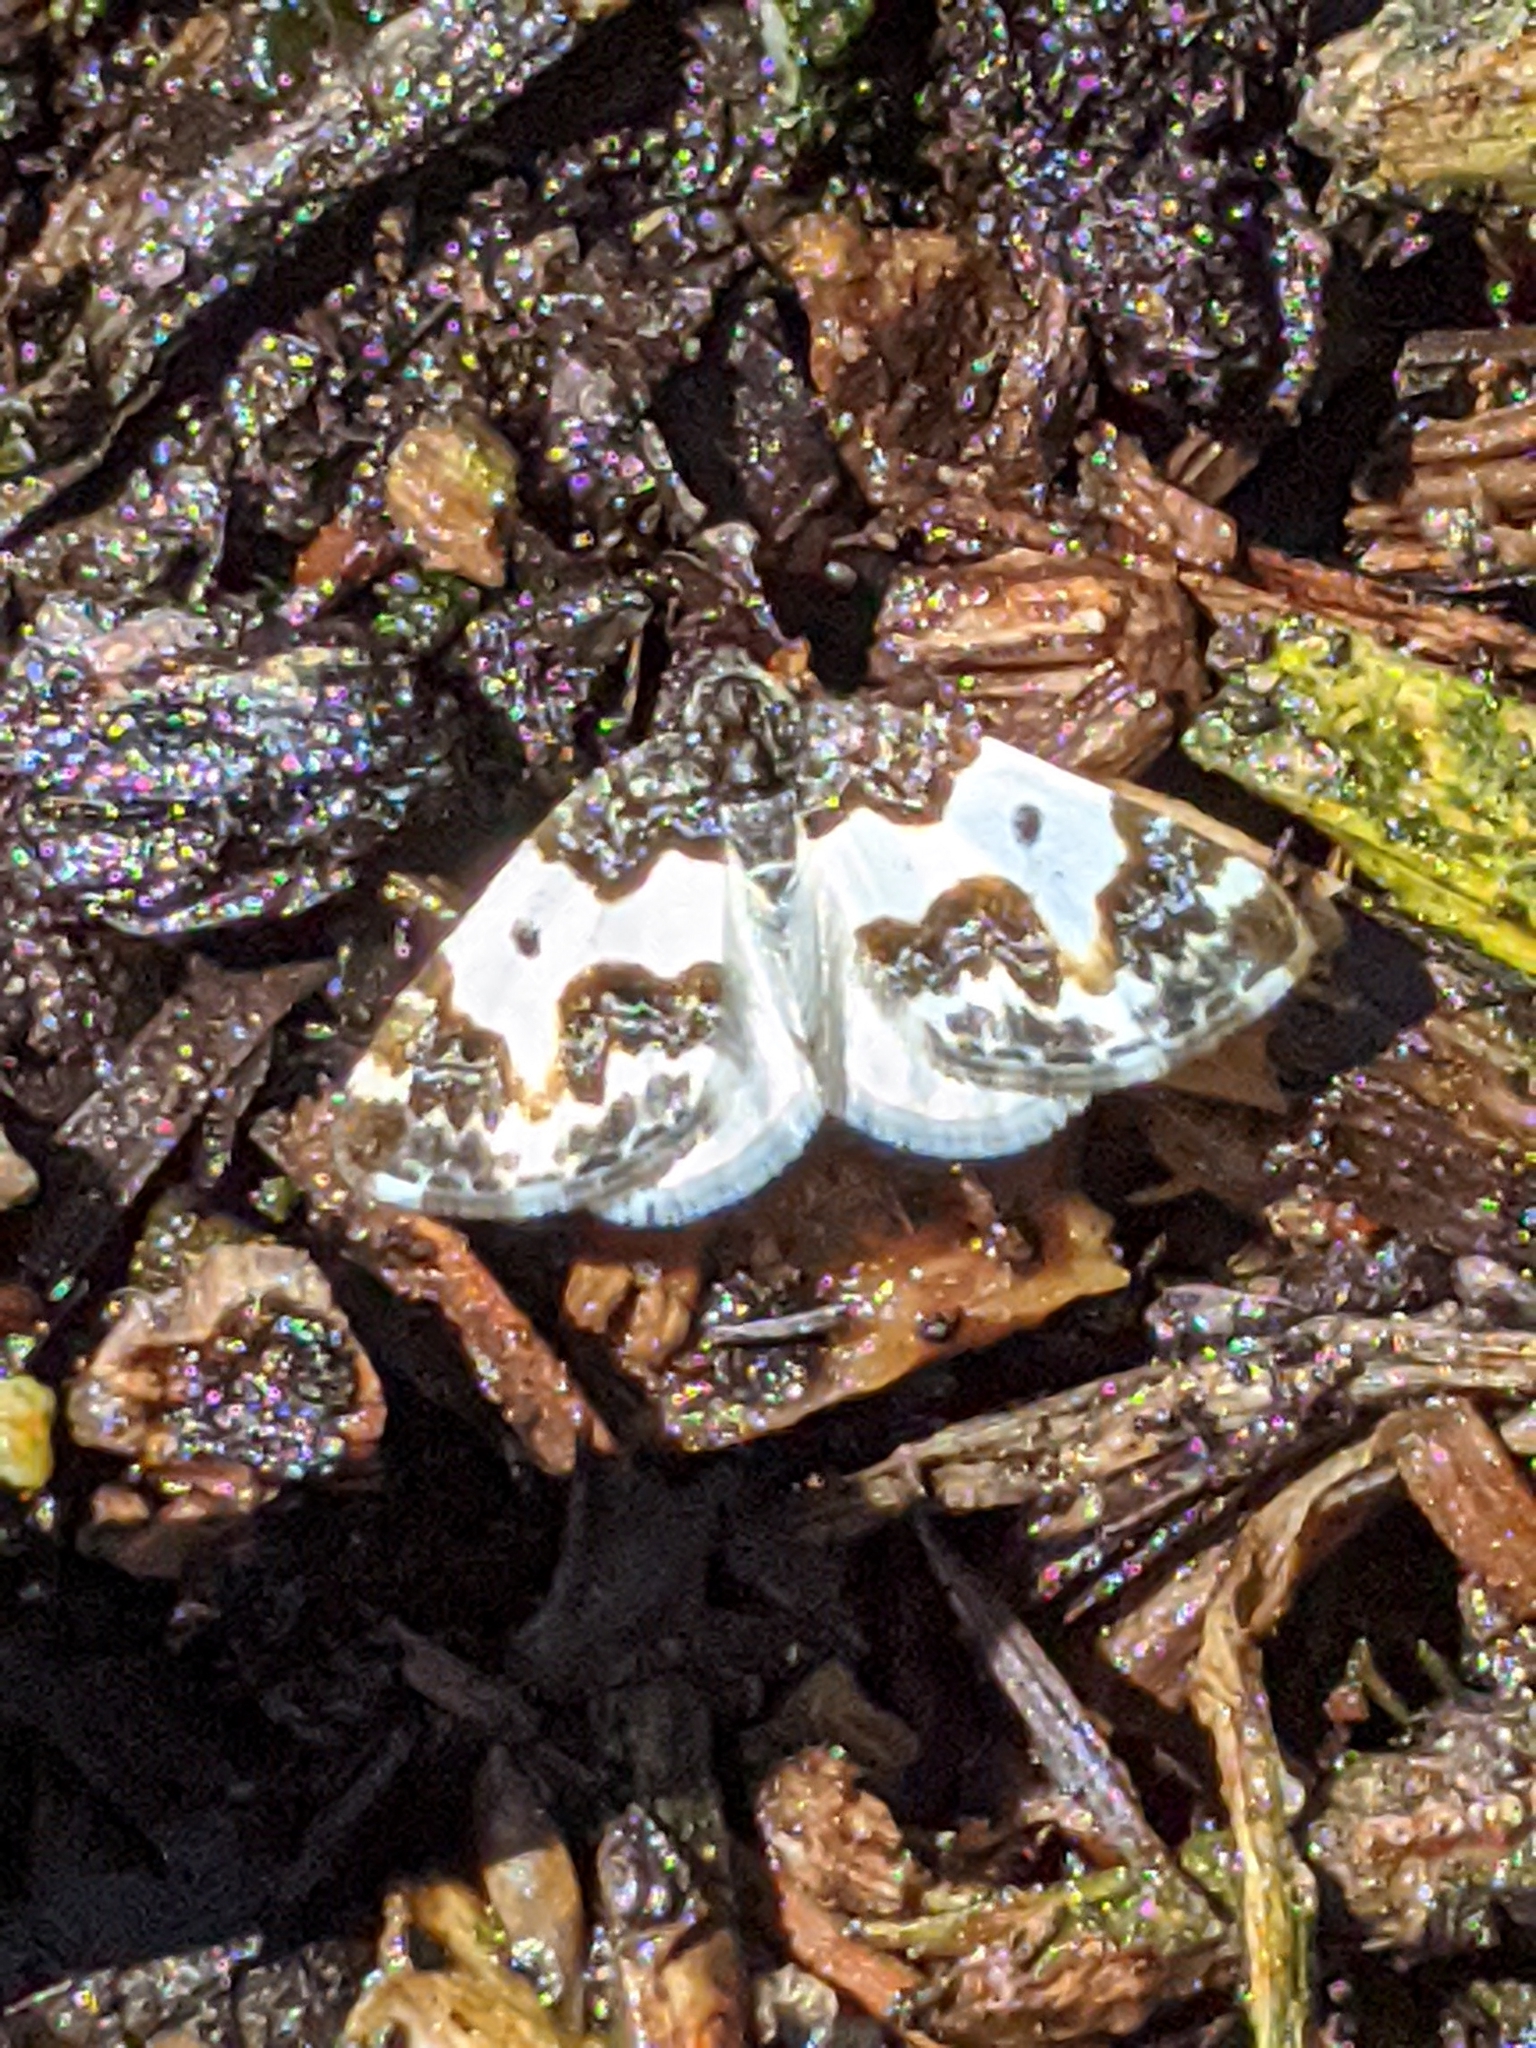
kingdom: Animalia
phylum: Arthropoda
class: Insecta
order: Lepidoptera
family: Geometridae
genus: Mesoleuca
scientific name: Mesoleuca gratulata
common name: Half-white carpet moth
